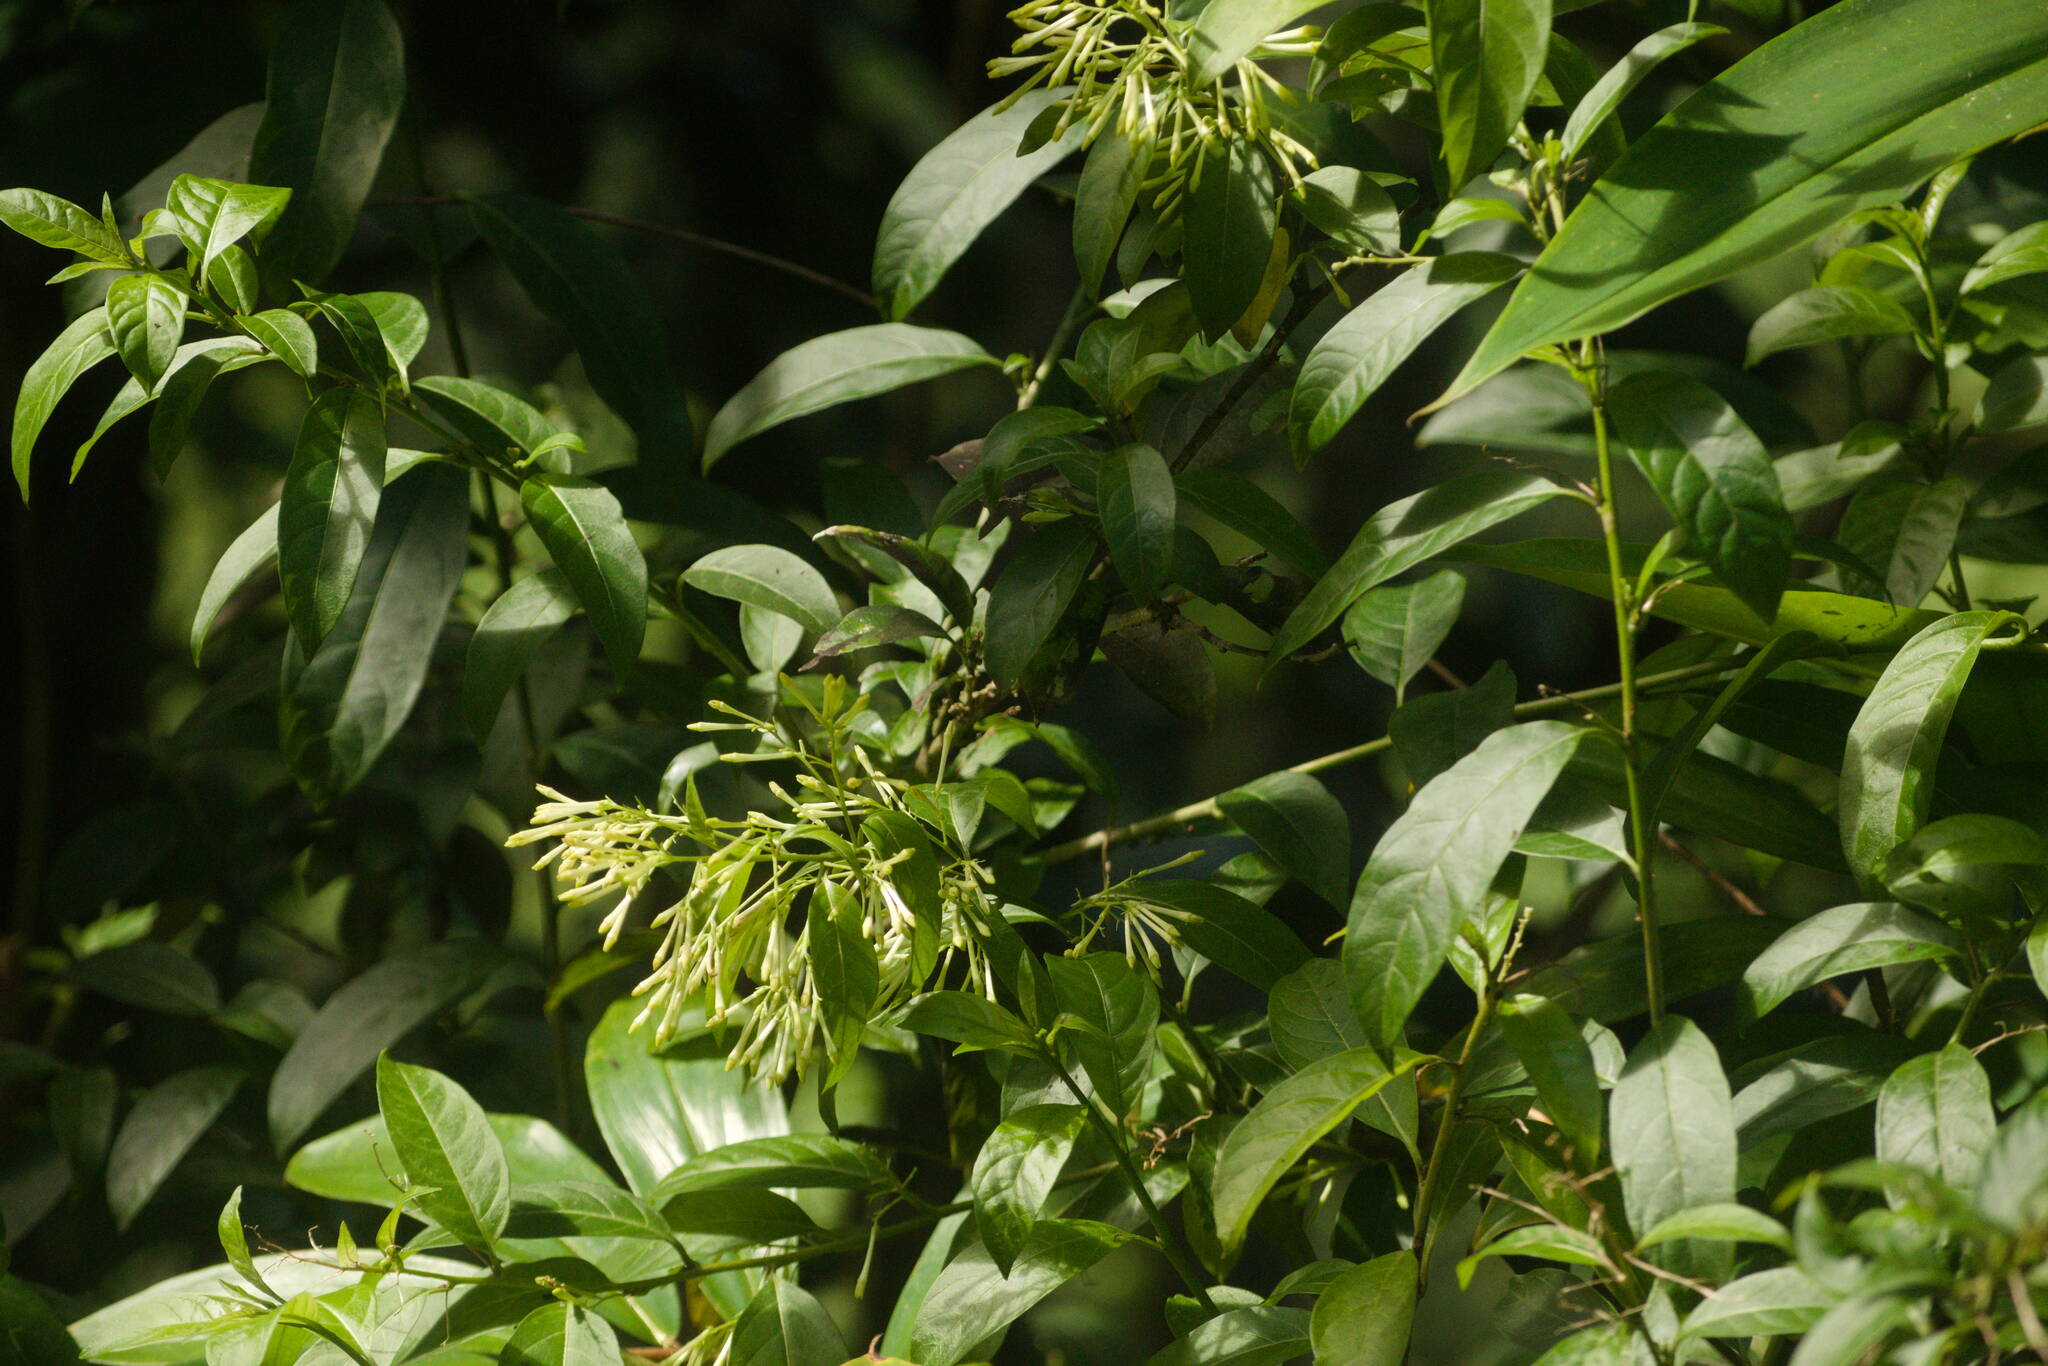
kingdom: Plantae
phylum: Tracheophyta
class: Magnoliopsida
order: Solanales
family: Solanaceae
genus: Cestrum
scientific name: Cestrum nocturnum
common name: Night jessamine
